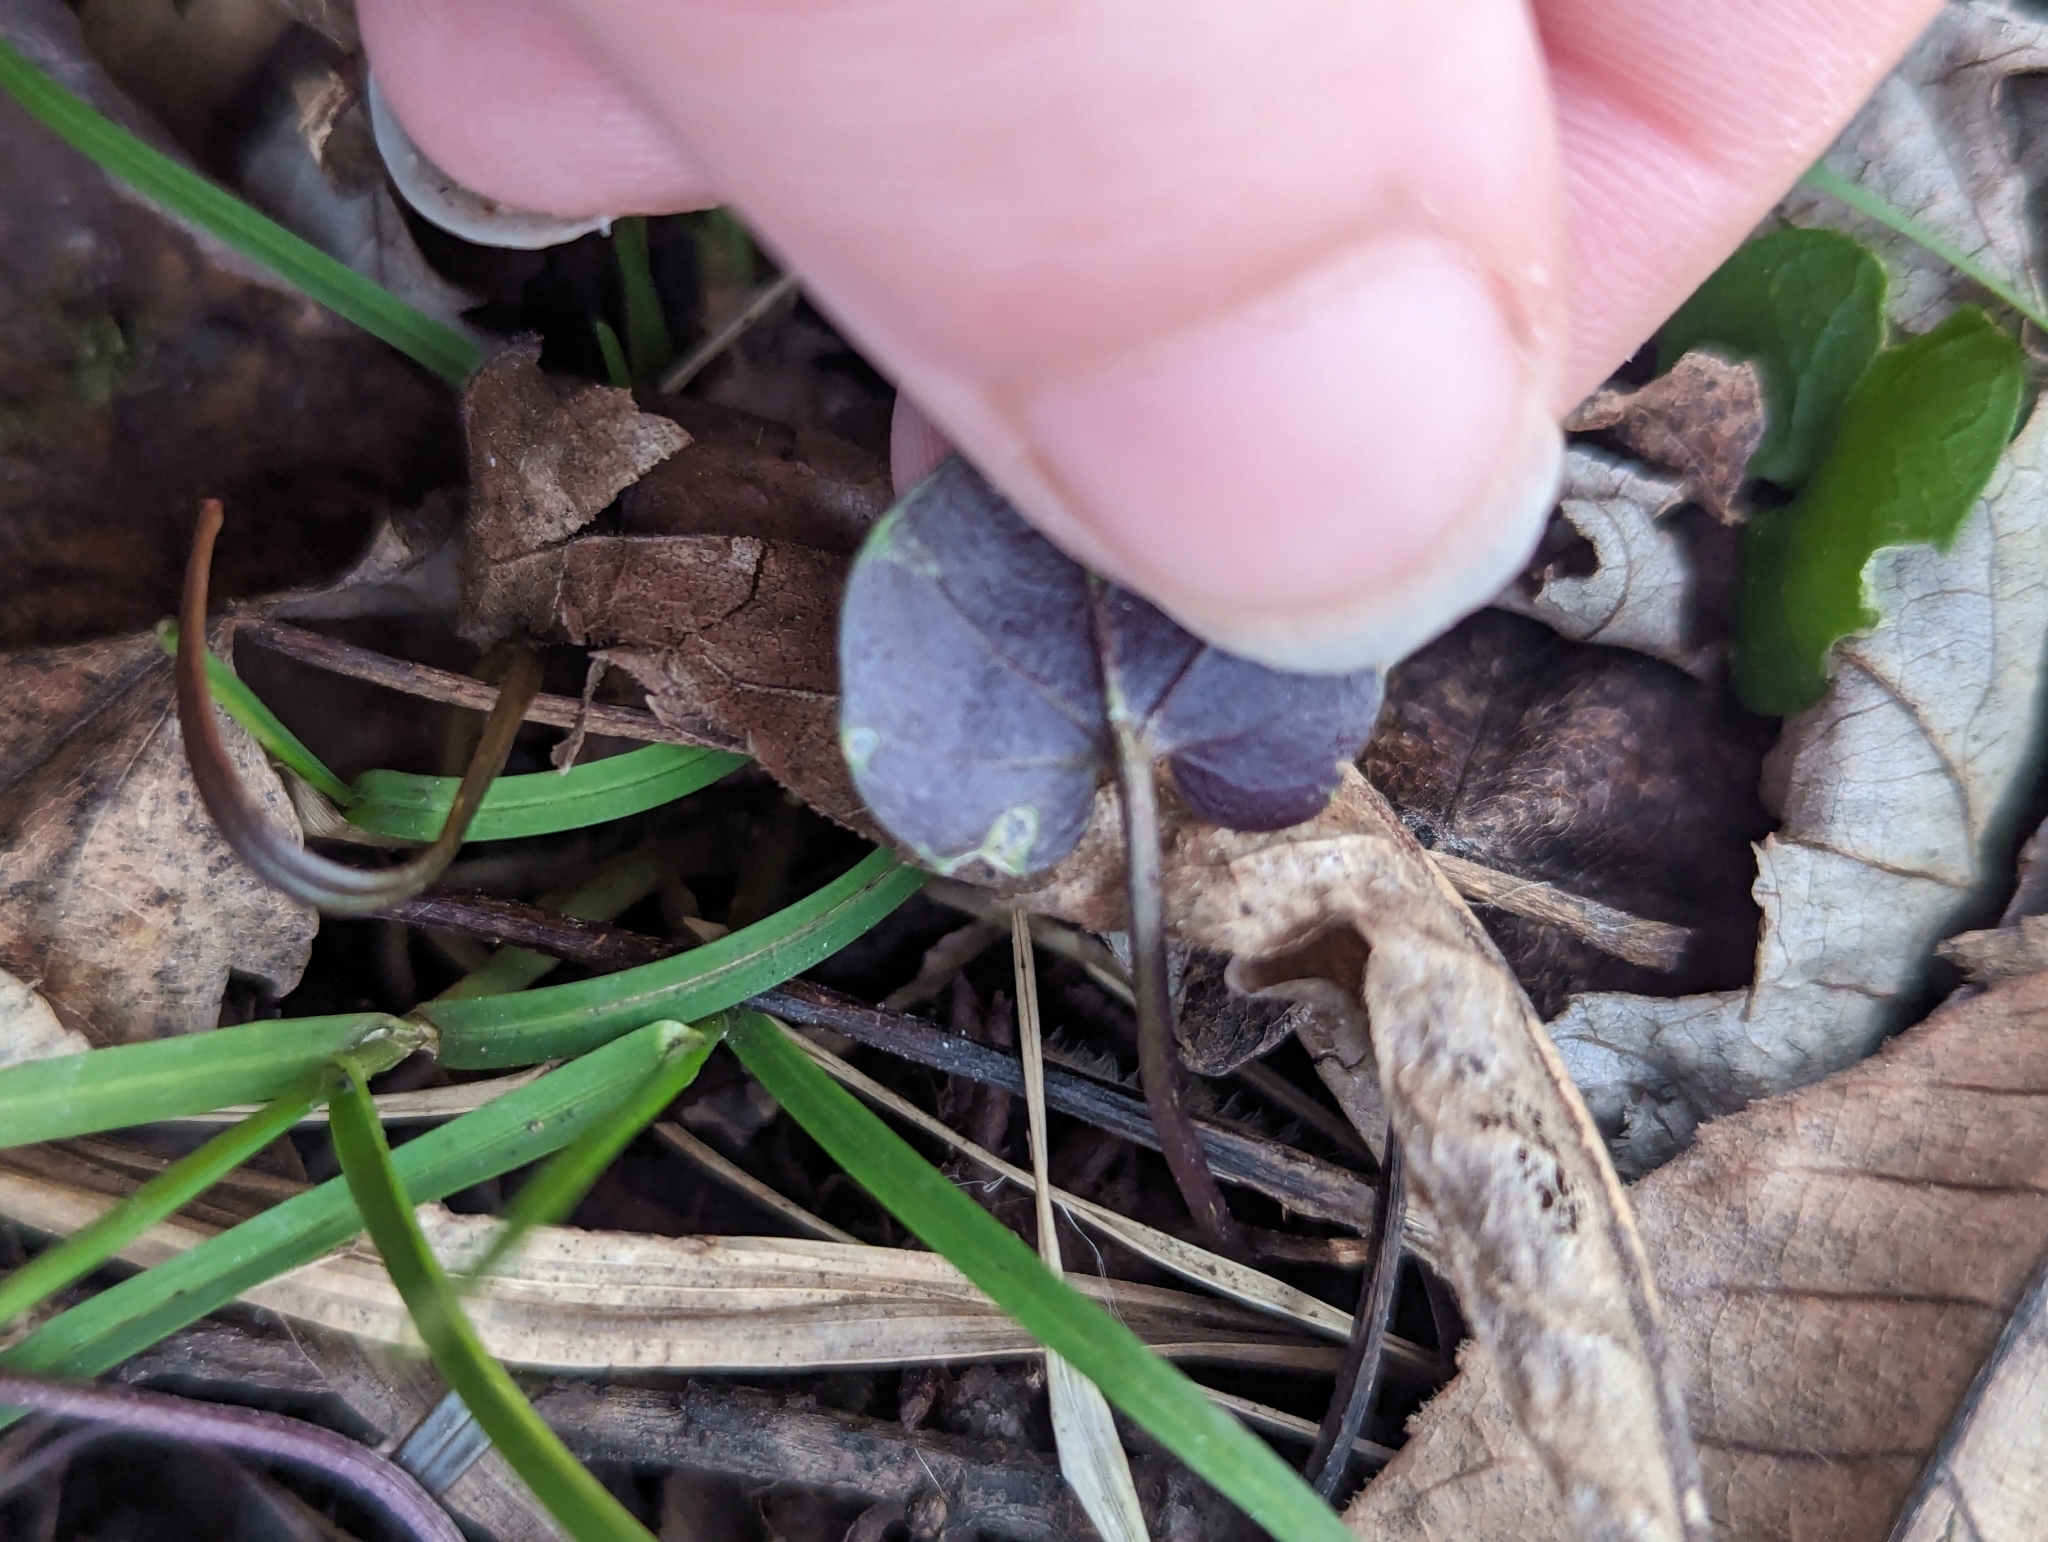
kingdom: Plantae
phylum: Tracheophyta
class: Magnoliopsida
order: Brassicales
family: Brassicaceae
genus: Cardamine
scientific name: Cardamine douglassii
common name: Purple cress
